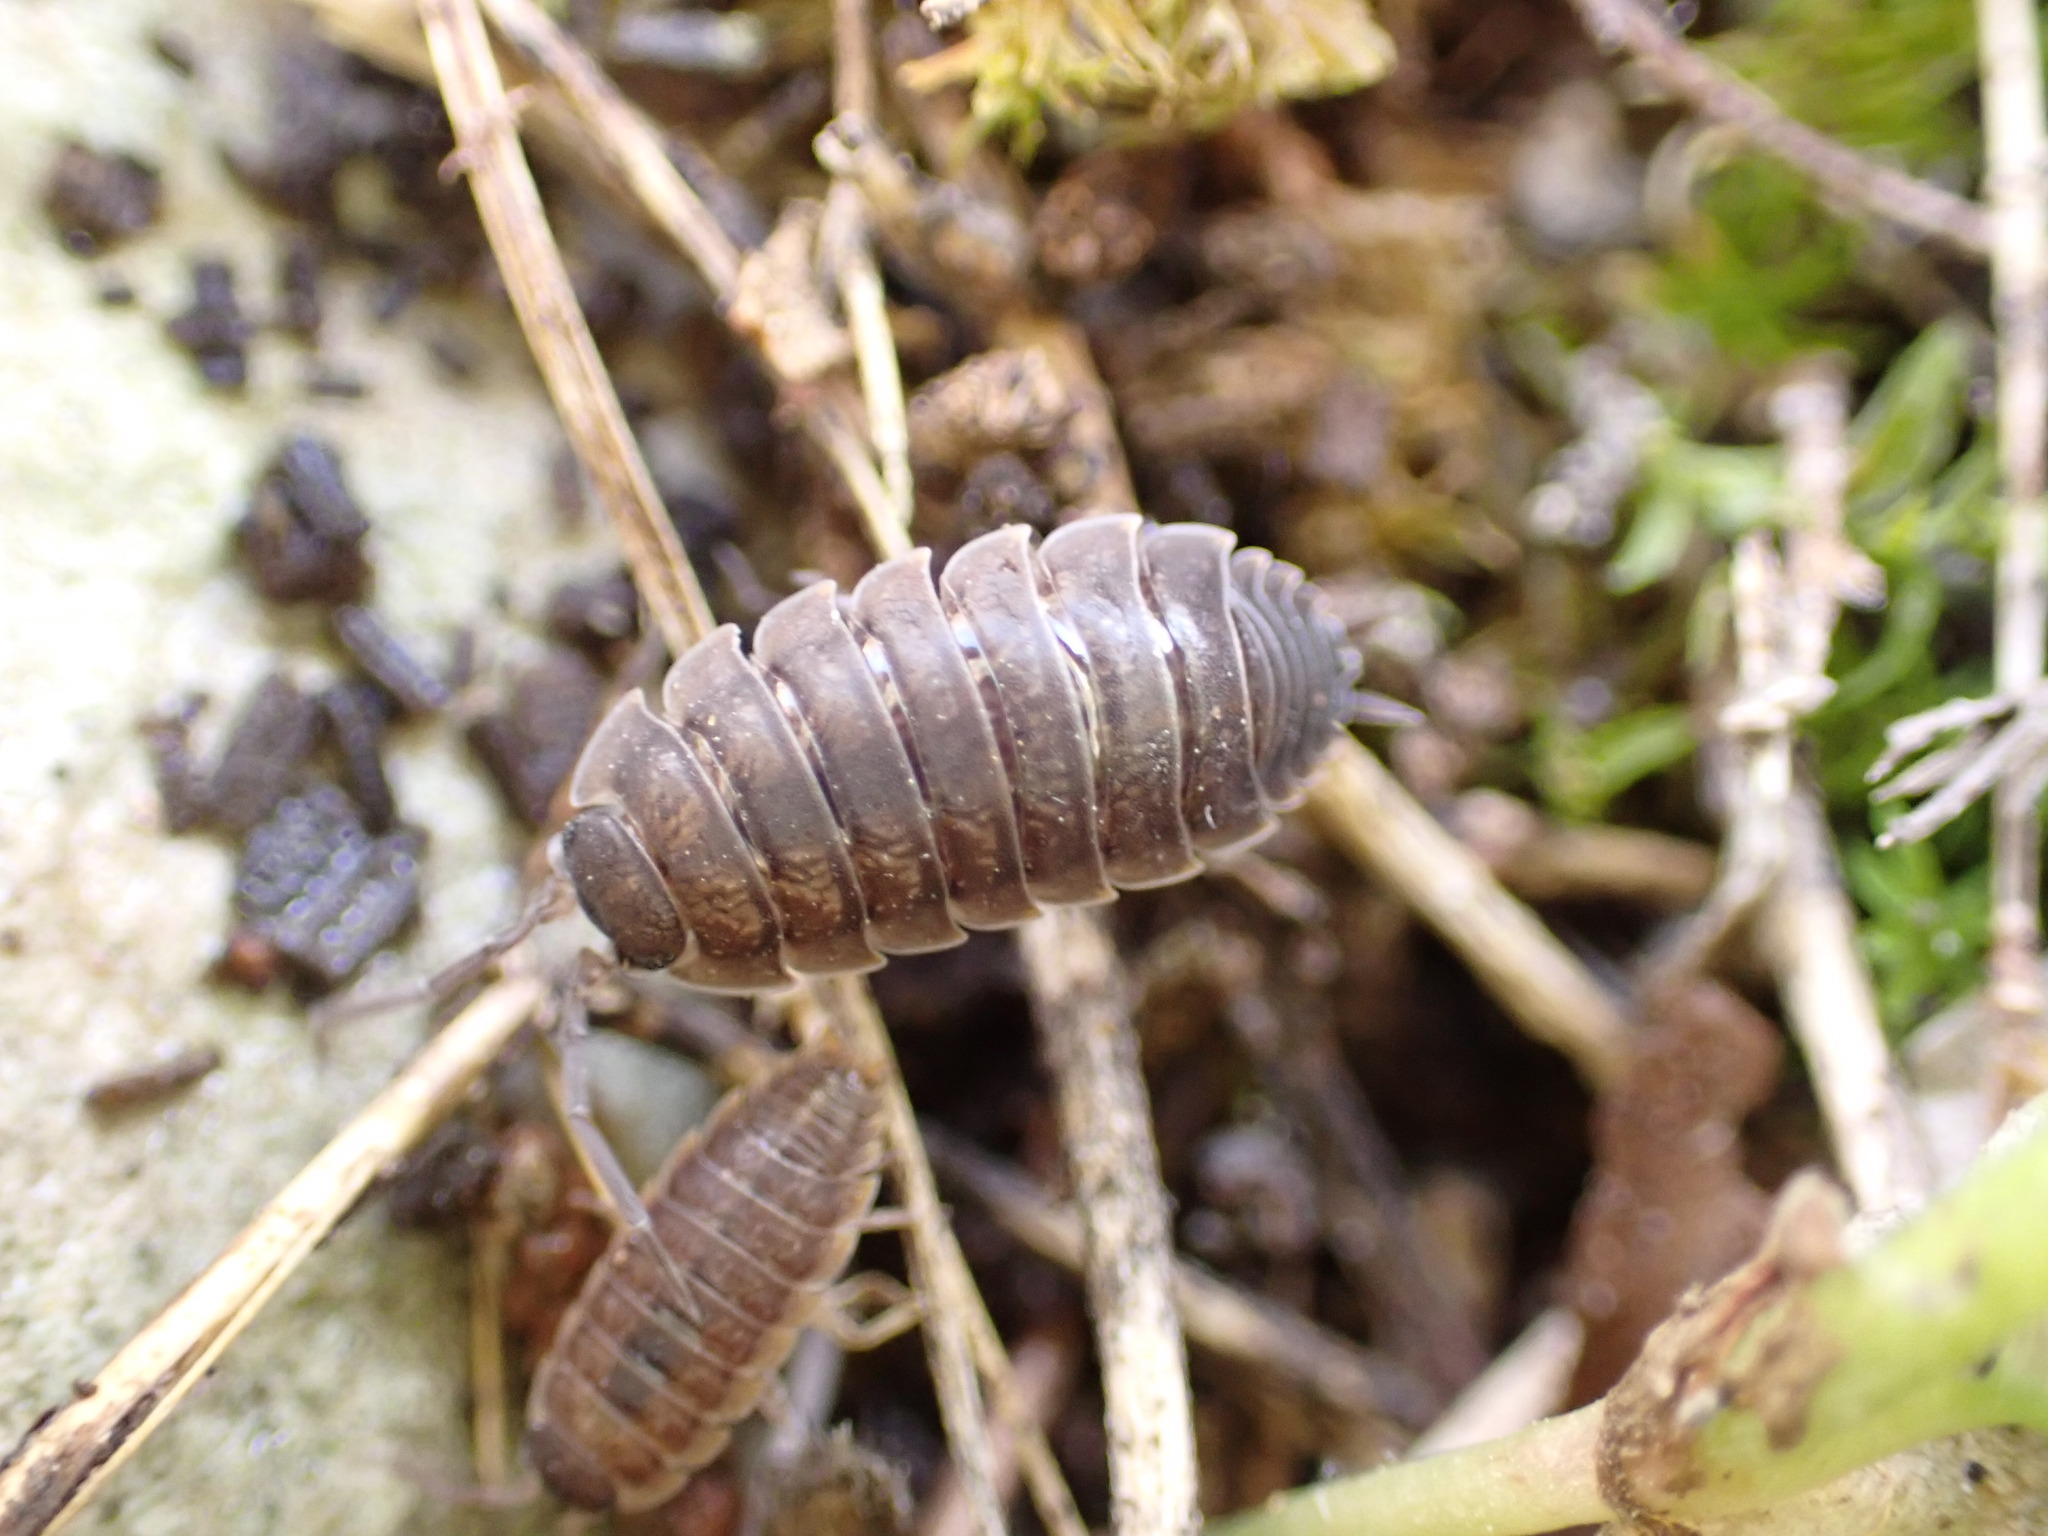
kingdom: Animalia
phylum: Arthropoda
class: Malacostraca
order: Isopoda
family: Porcellionidae
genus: Porcellio
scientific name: Porcellio orarum
